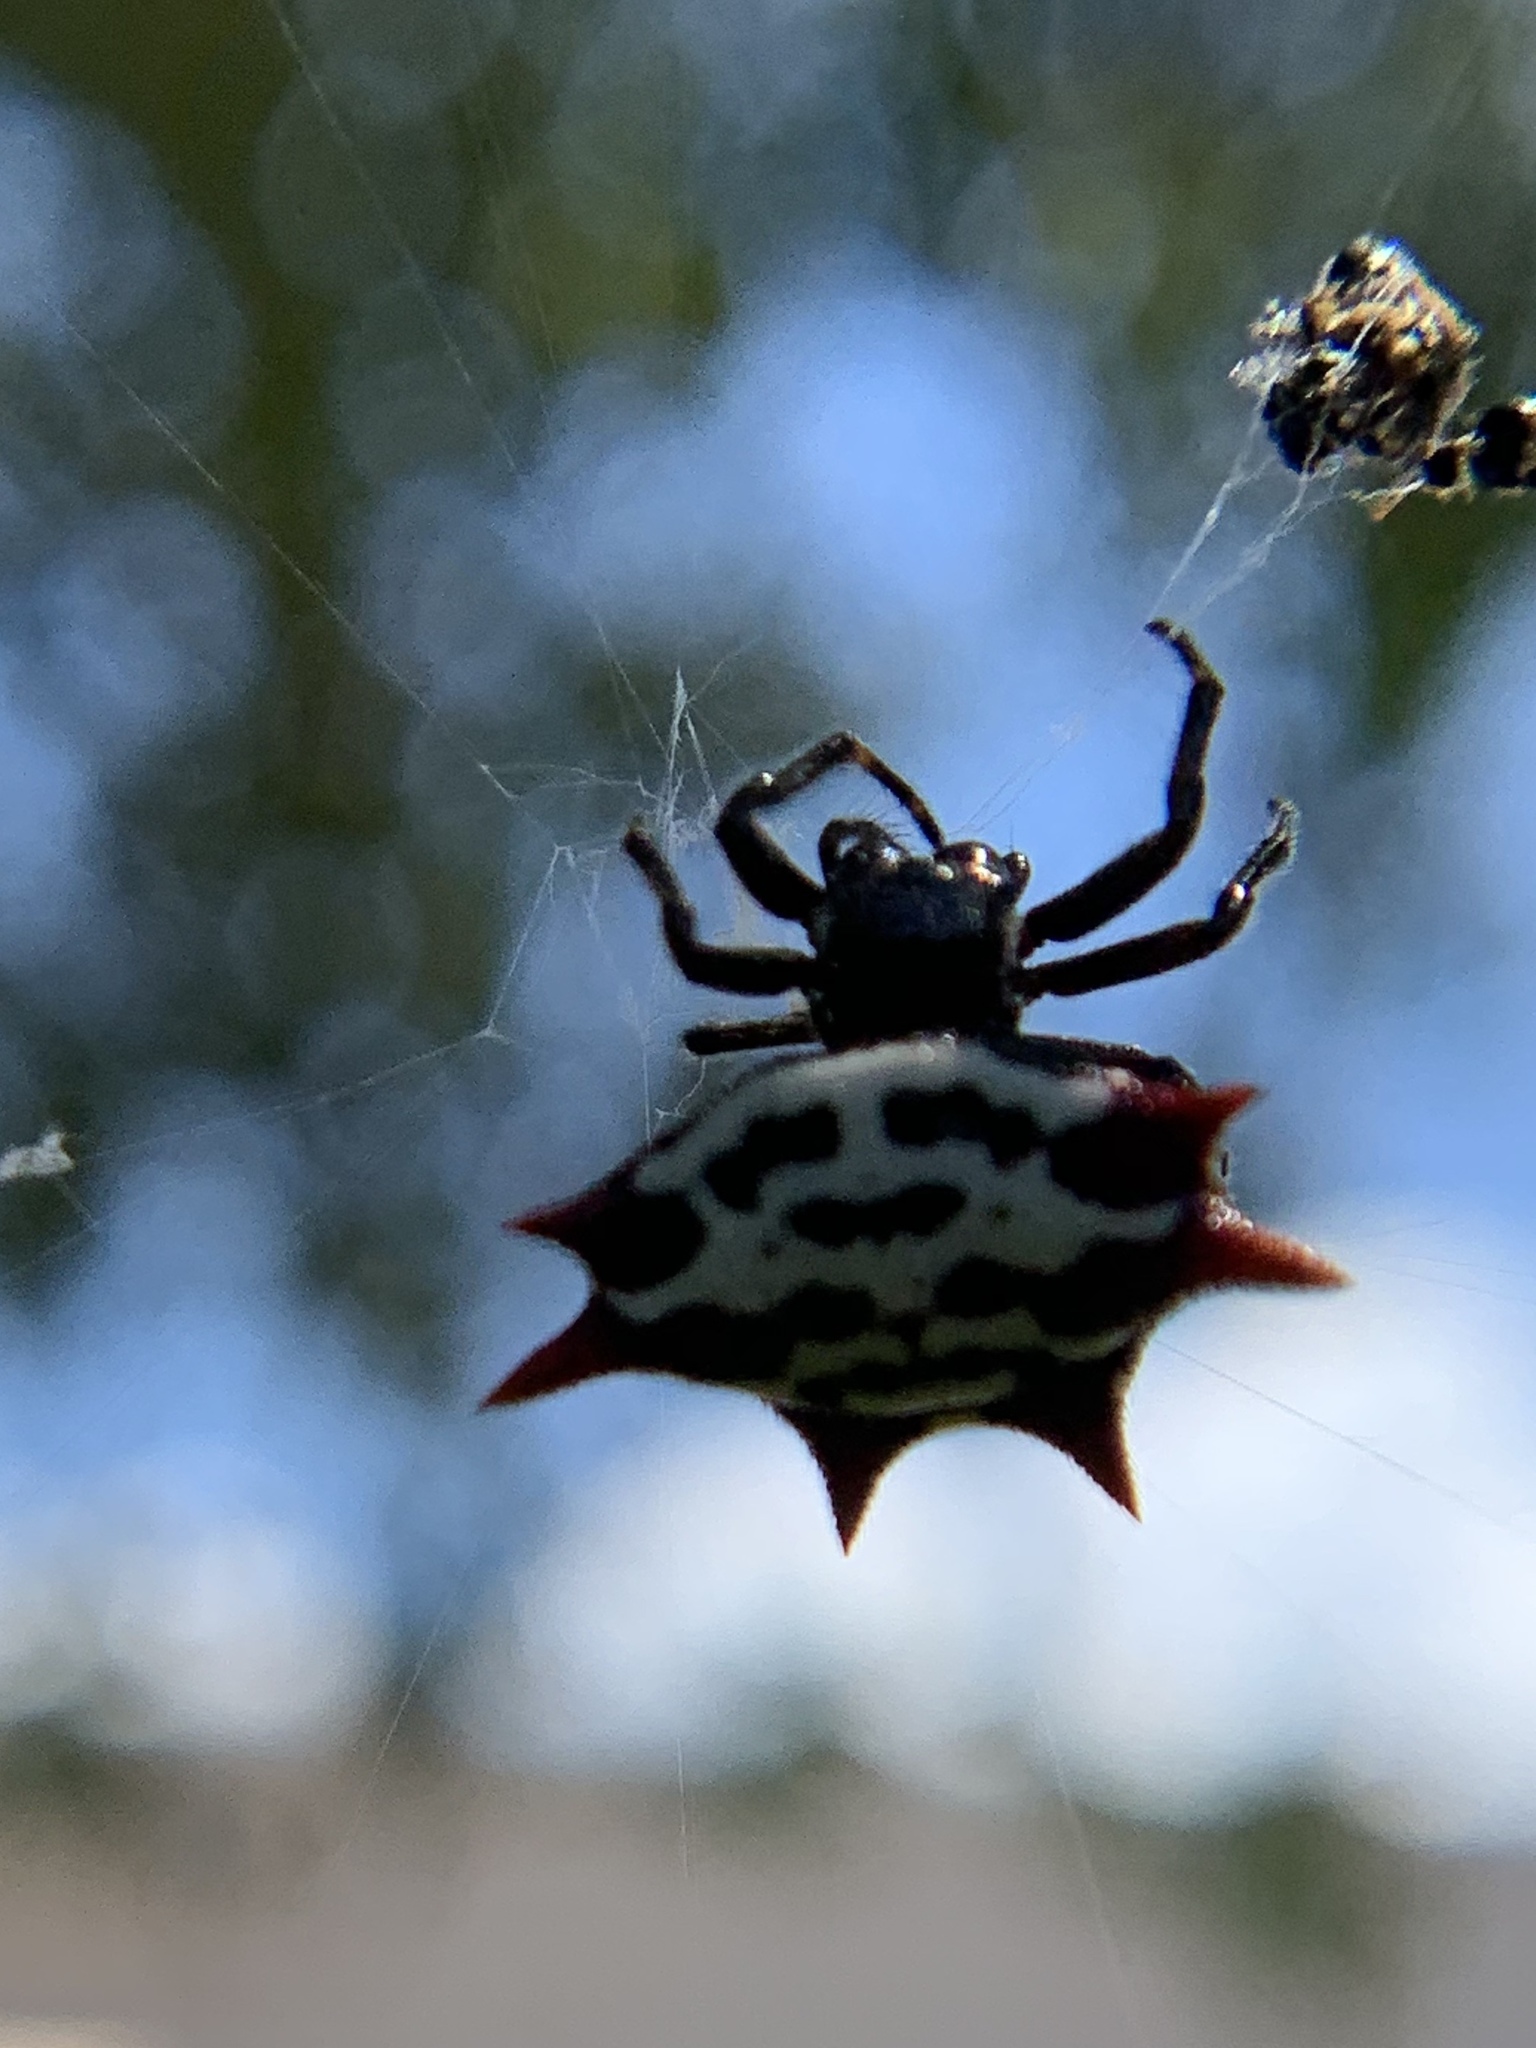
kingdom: Animalia
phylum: Arthropoda
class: Arachnida
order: Araneae
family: Araneidae
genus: Gasteracantha
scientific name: Gasteracantha cancriformis
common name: Orb weavers
